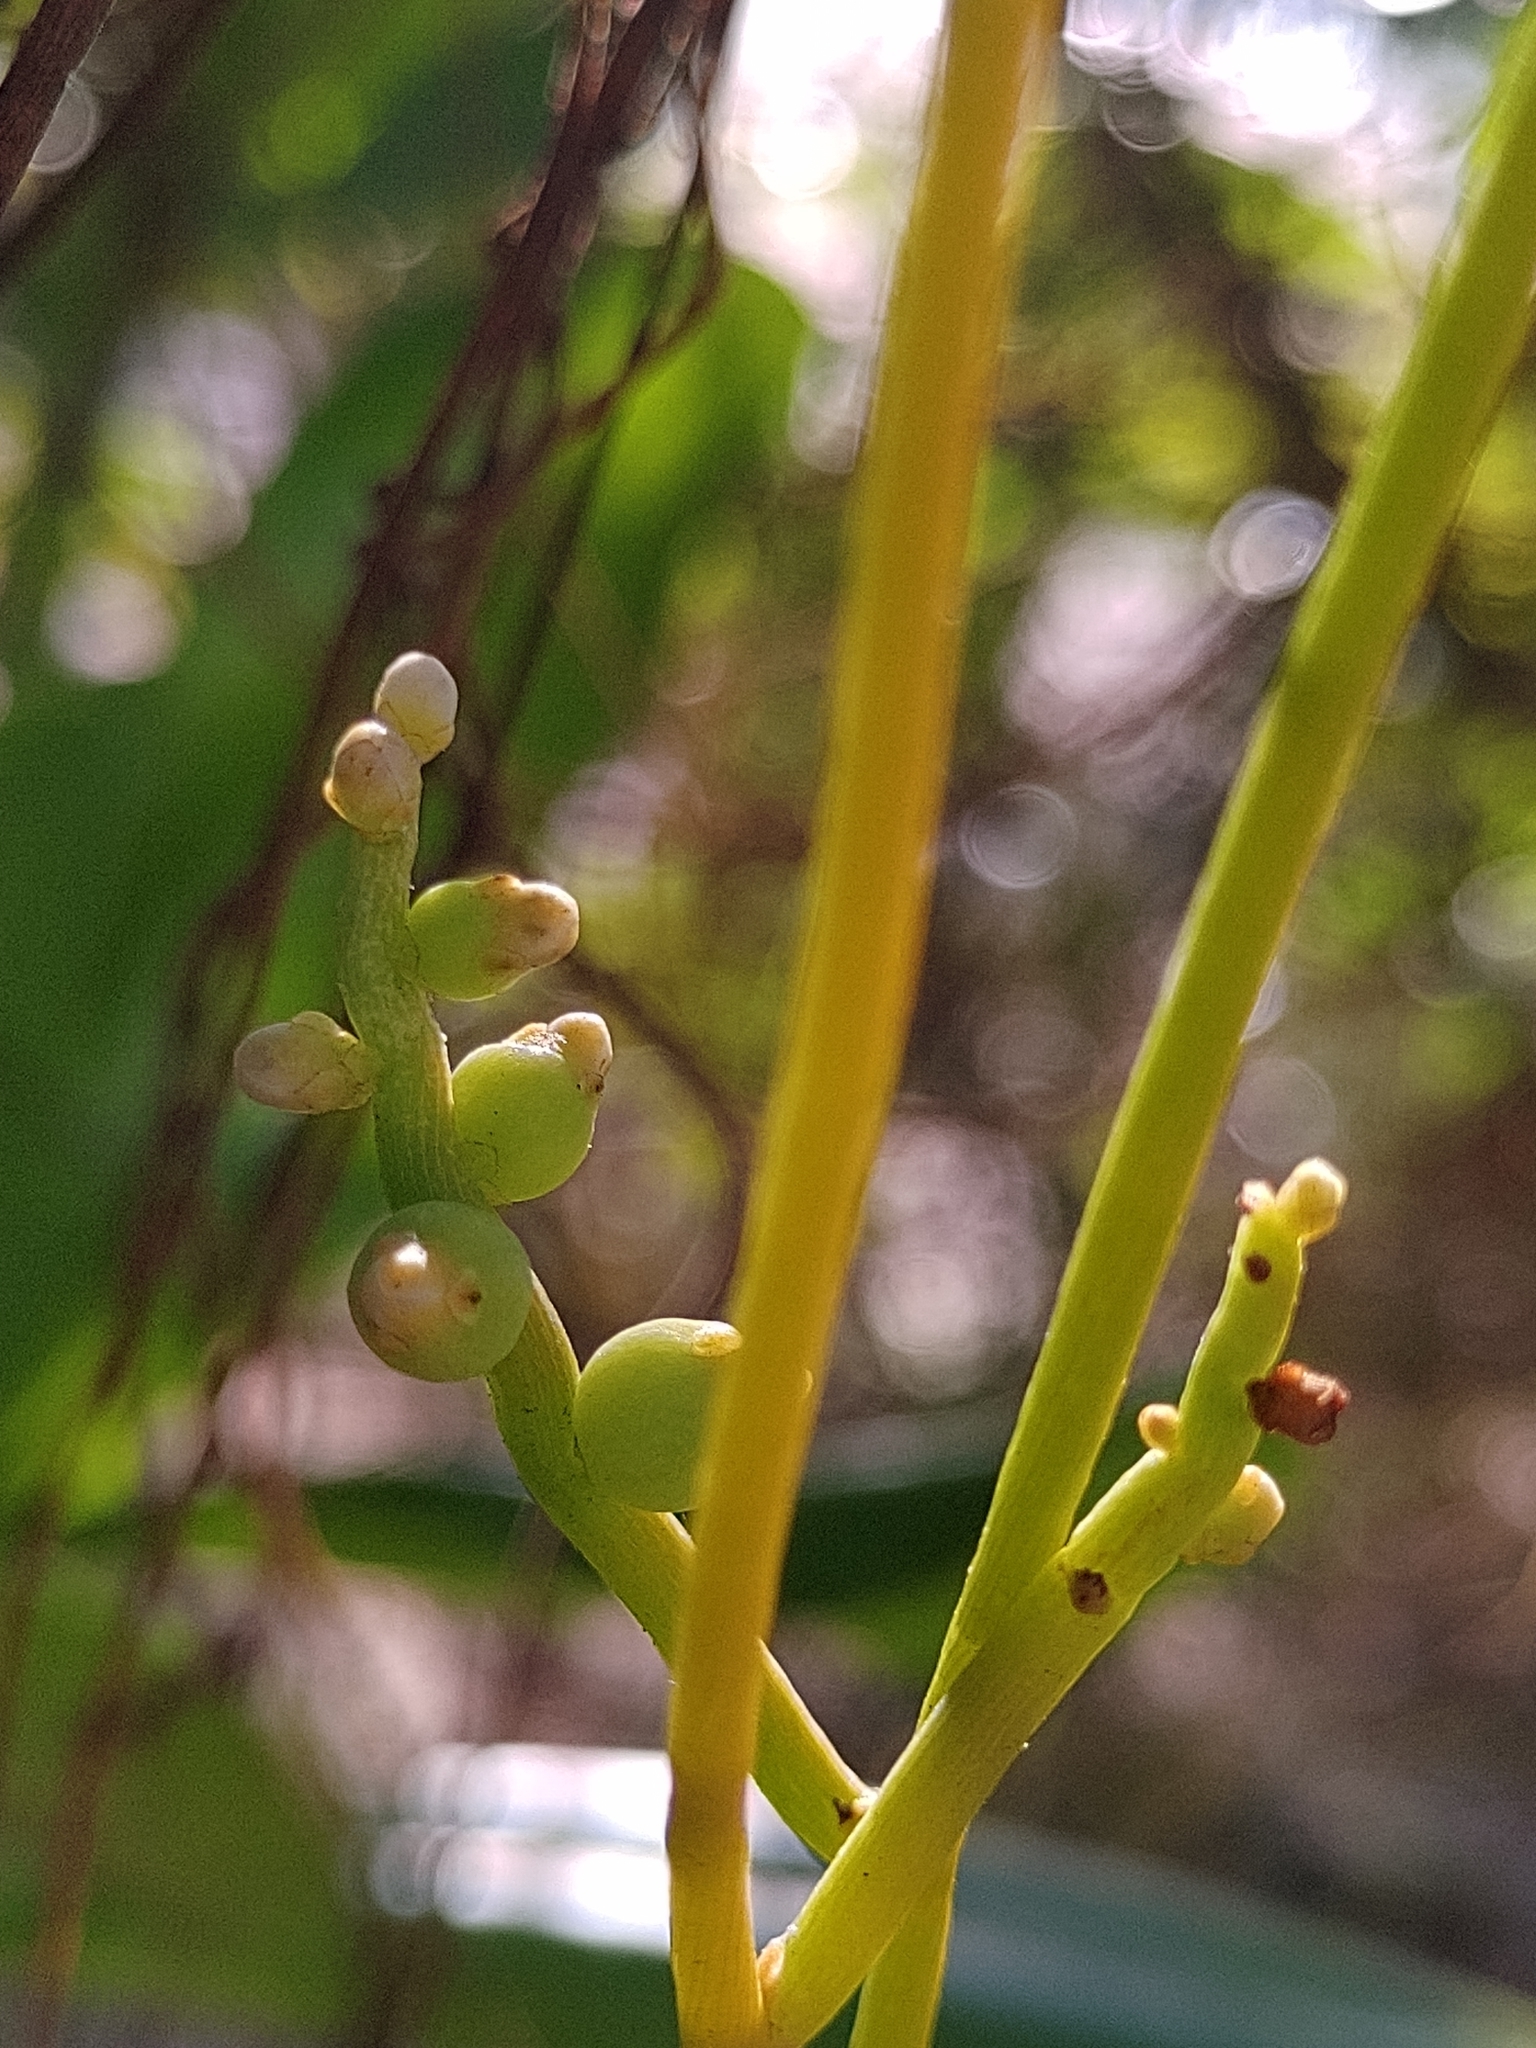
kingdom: Plantae
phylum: Tracheophyta
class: Magnoliopsida
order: Laurales
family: Lauraceae
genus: Cassytha
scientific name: Cassytha filiformis
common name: Dodder-laurel
